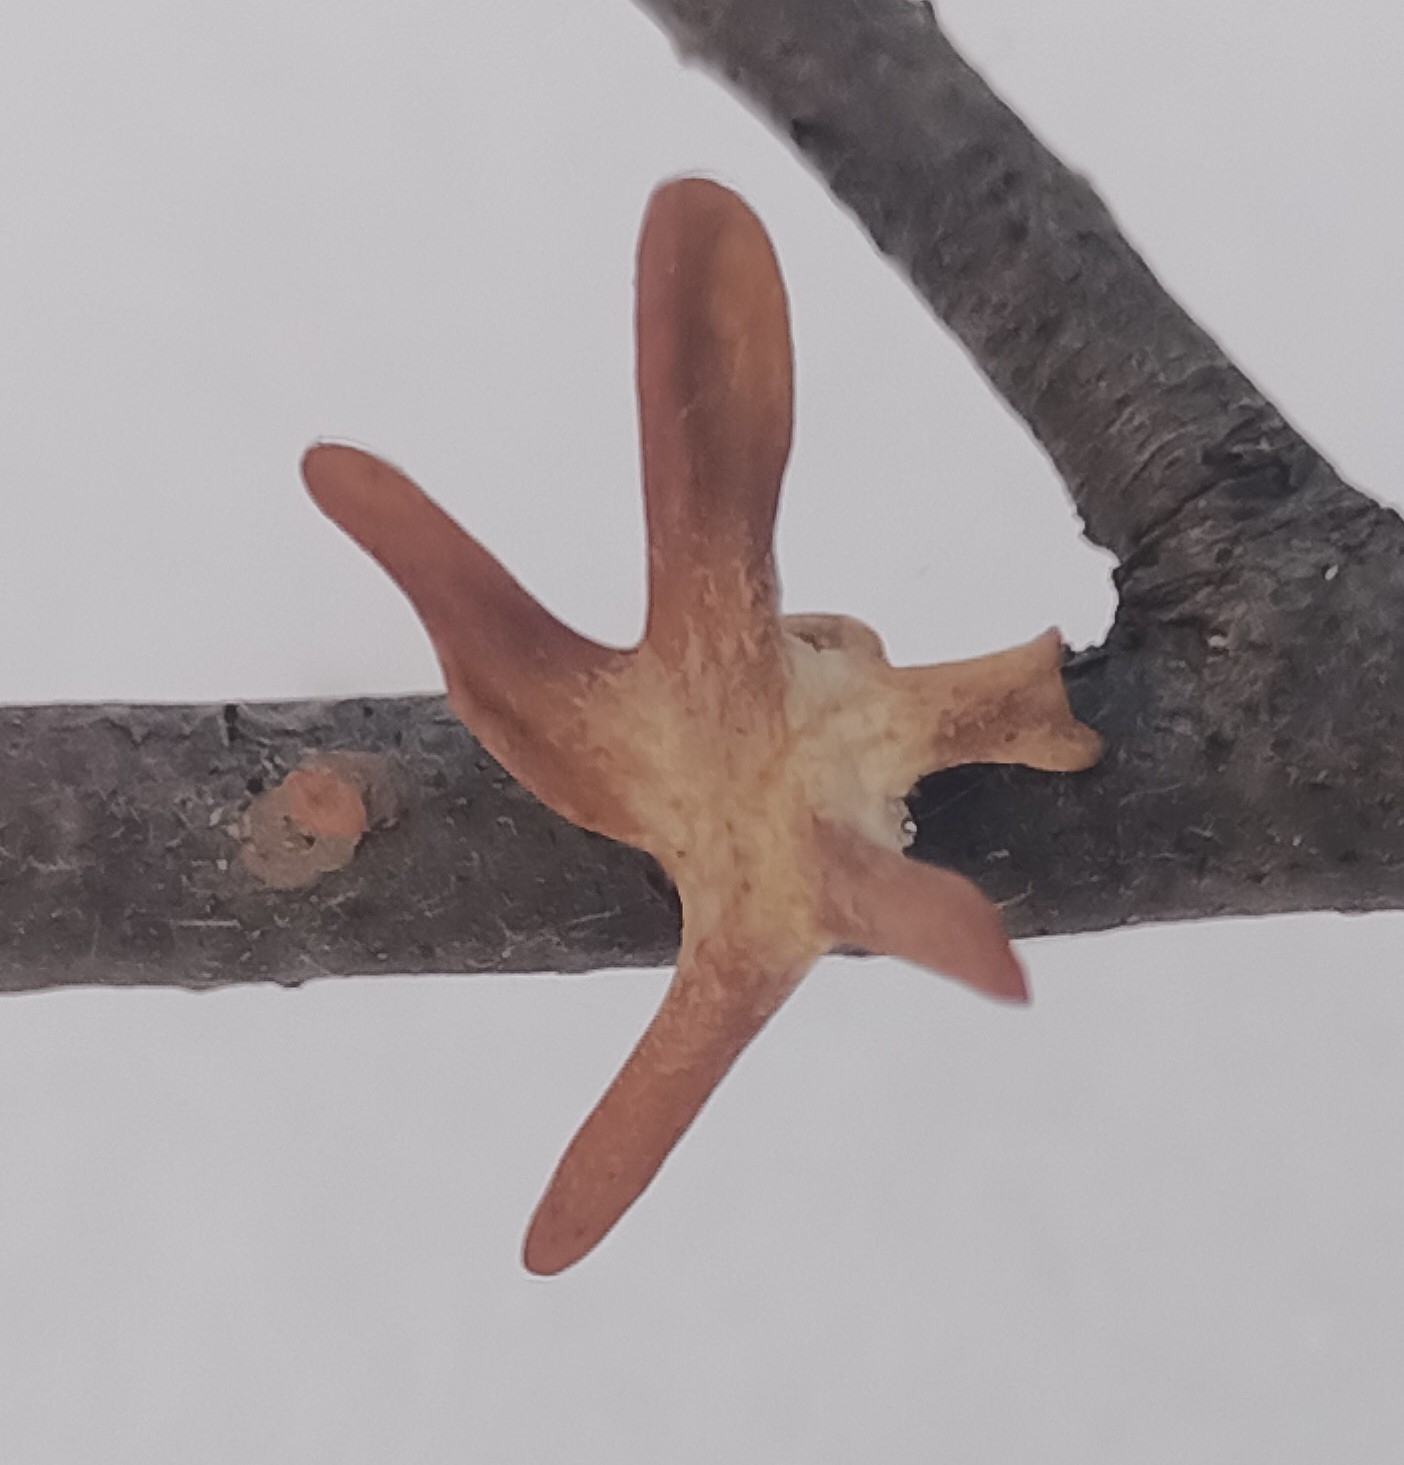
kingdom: Fungi
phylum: Basidiomycota
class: Agaricomycetes
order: Agaricales
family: Typhulaceae
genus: Typhula
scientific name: Typhula contorta
